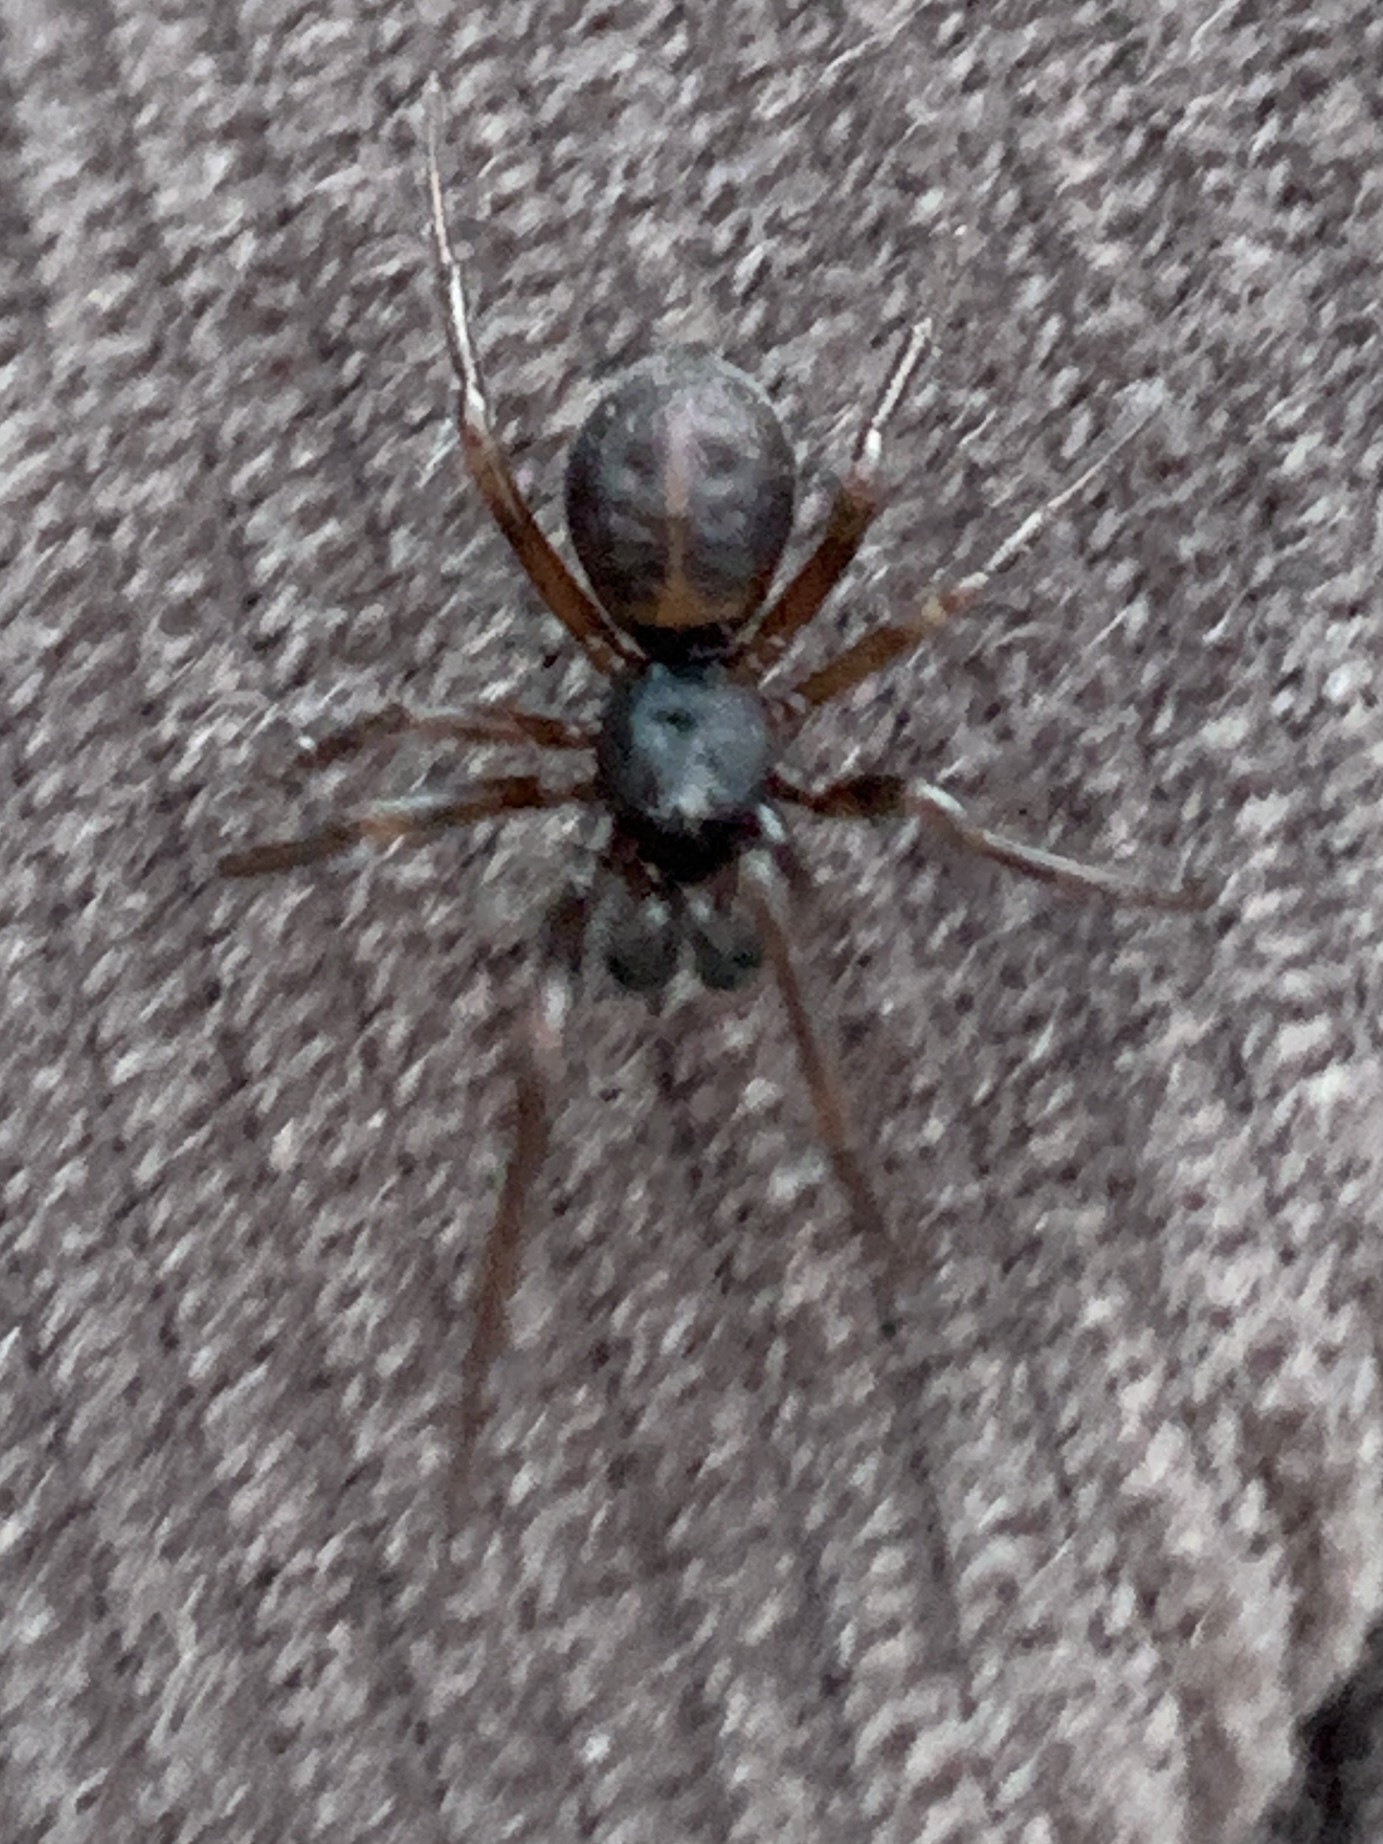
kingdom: Animalia
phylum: Arthropoda
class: Arachnida
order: Araneae
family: Theridiidae
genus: Steatoda
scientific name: Steatoda borealis
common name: Boreal combfoot
